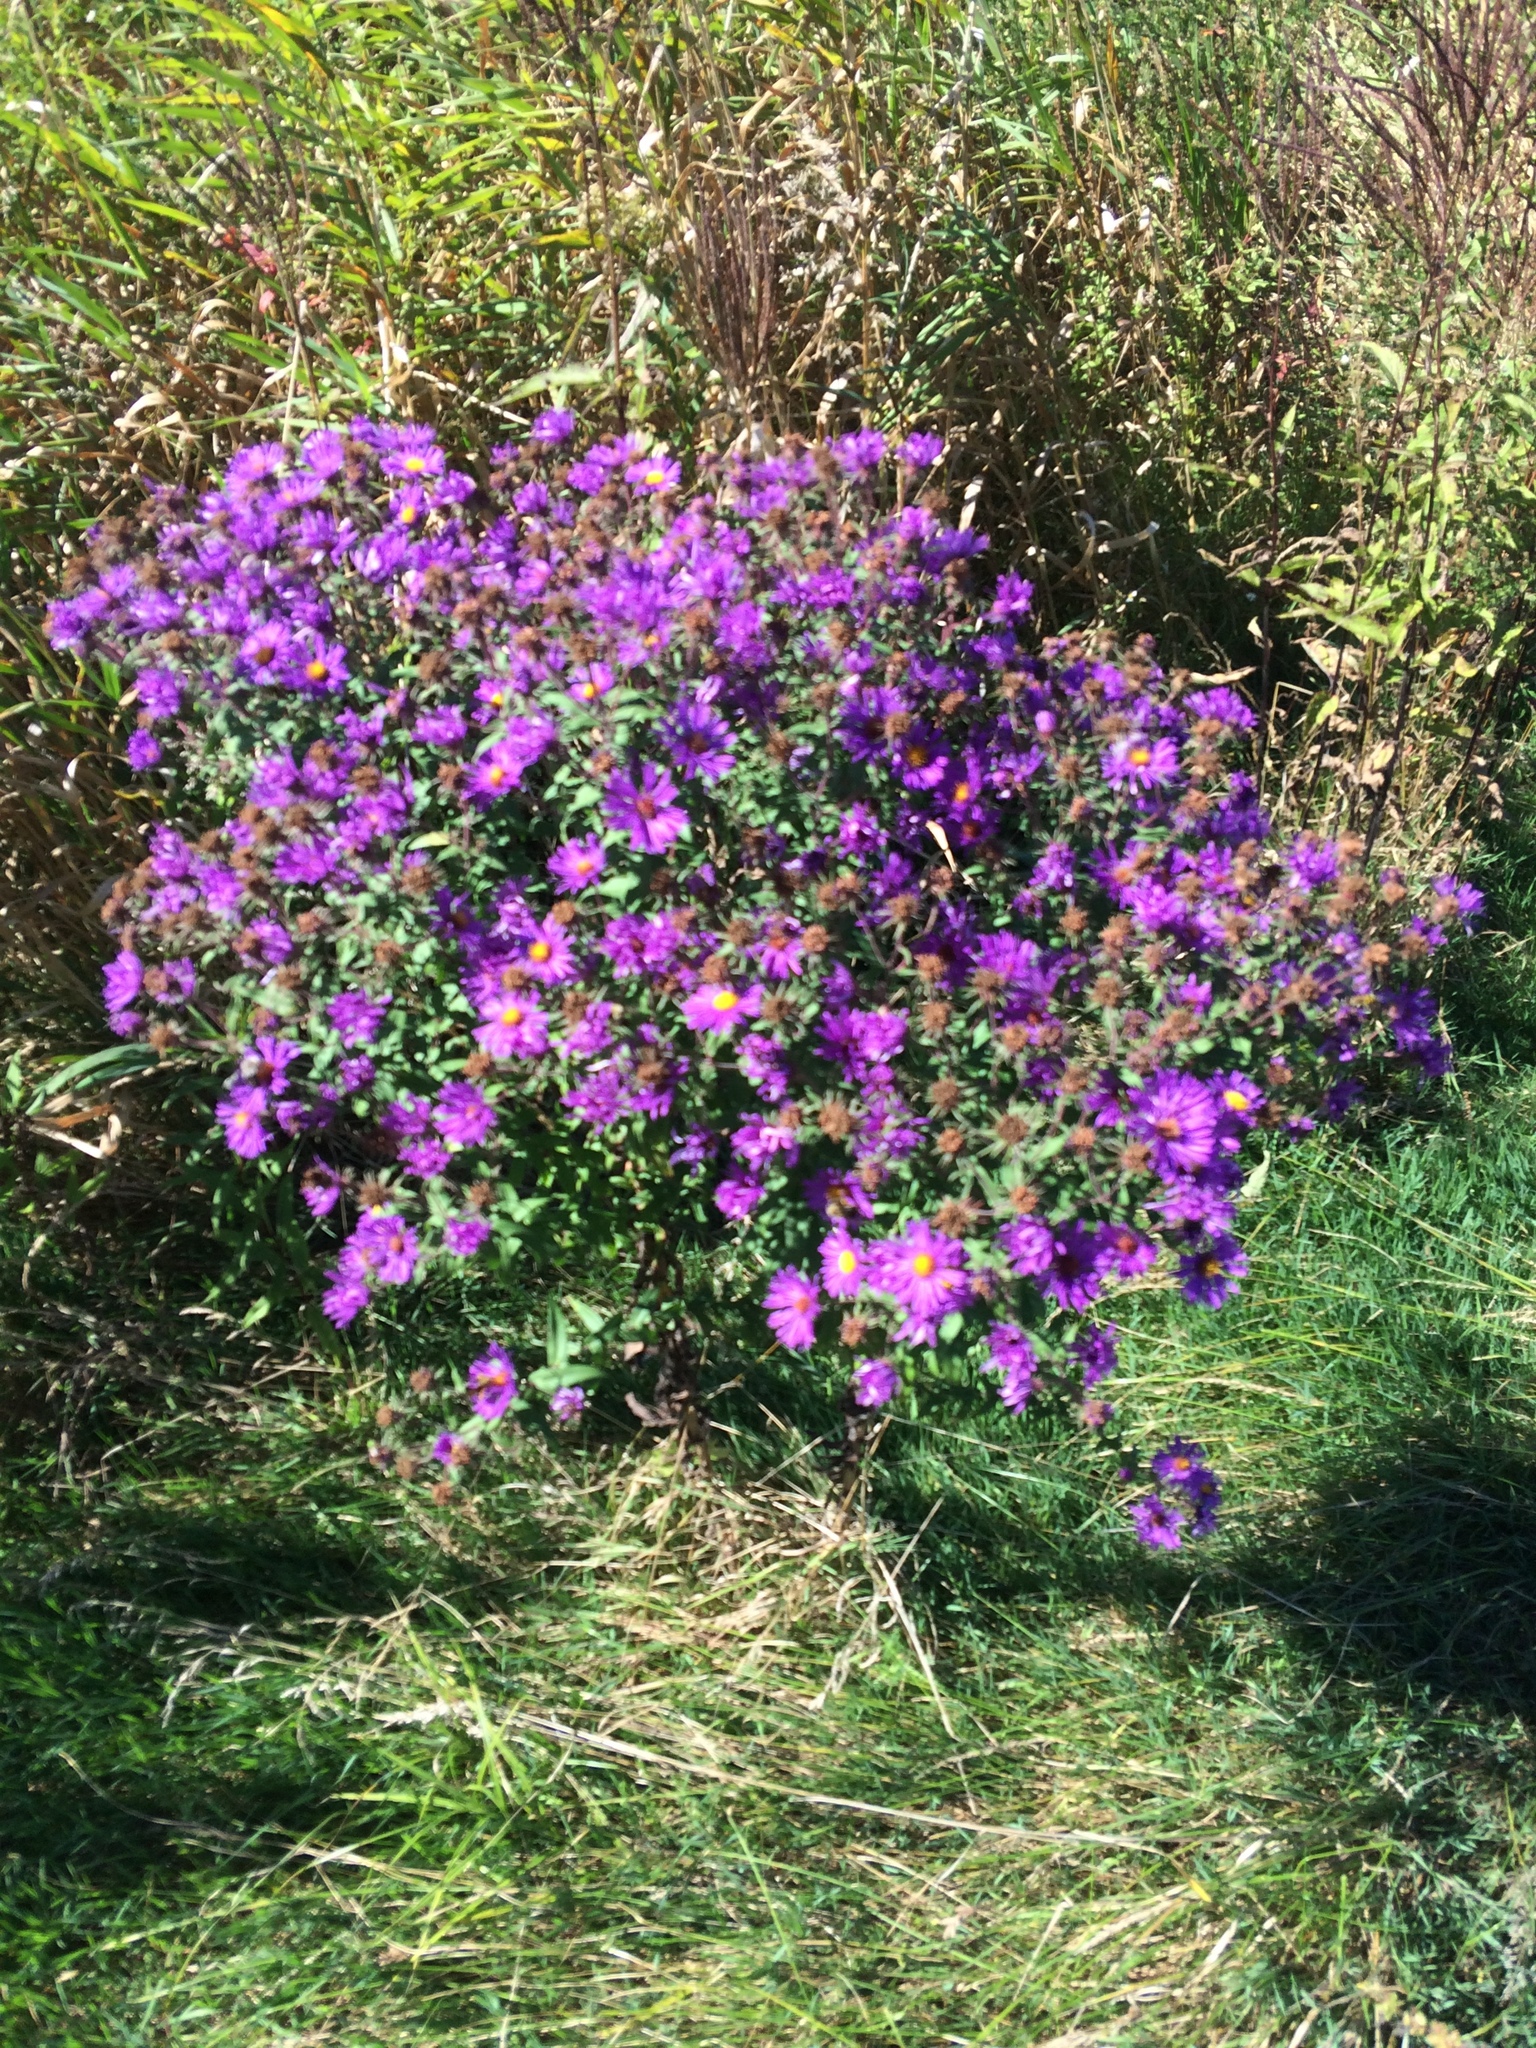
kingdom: Plantae
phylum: Tracheophyta
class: Magnoliopsida
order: Asterales
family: Asteraceae
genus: Symphyotrichum
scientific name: Symphyotrichum novae-angliae
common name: Michaelmas daisy
